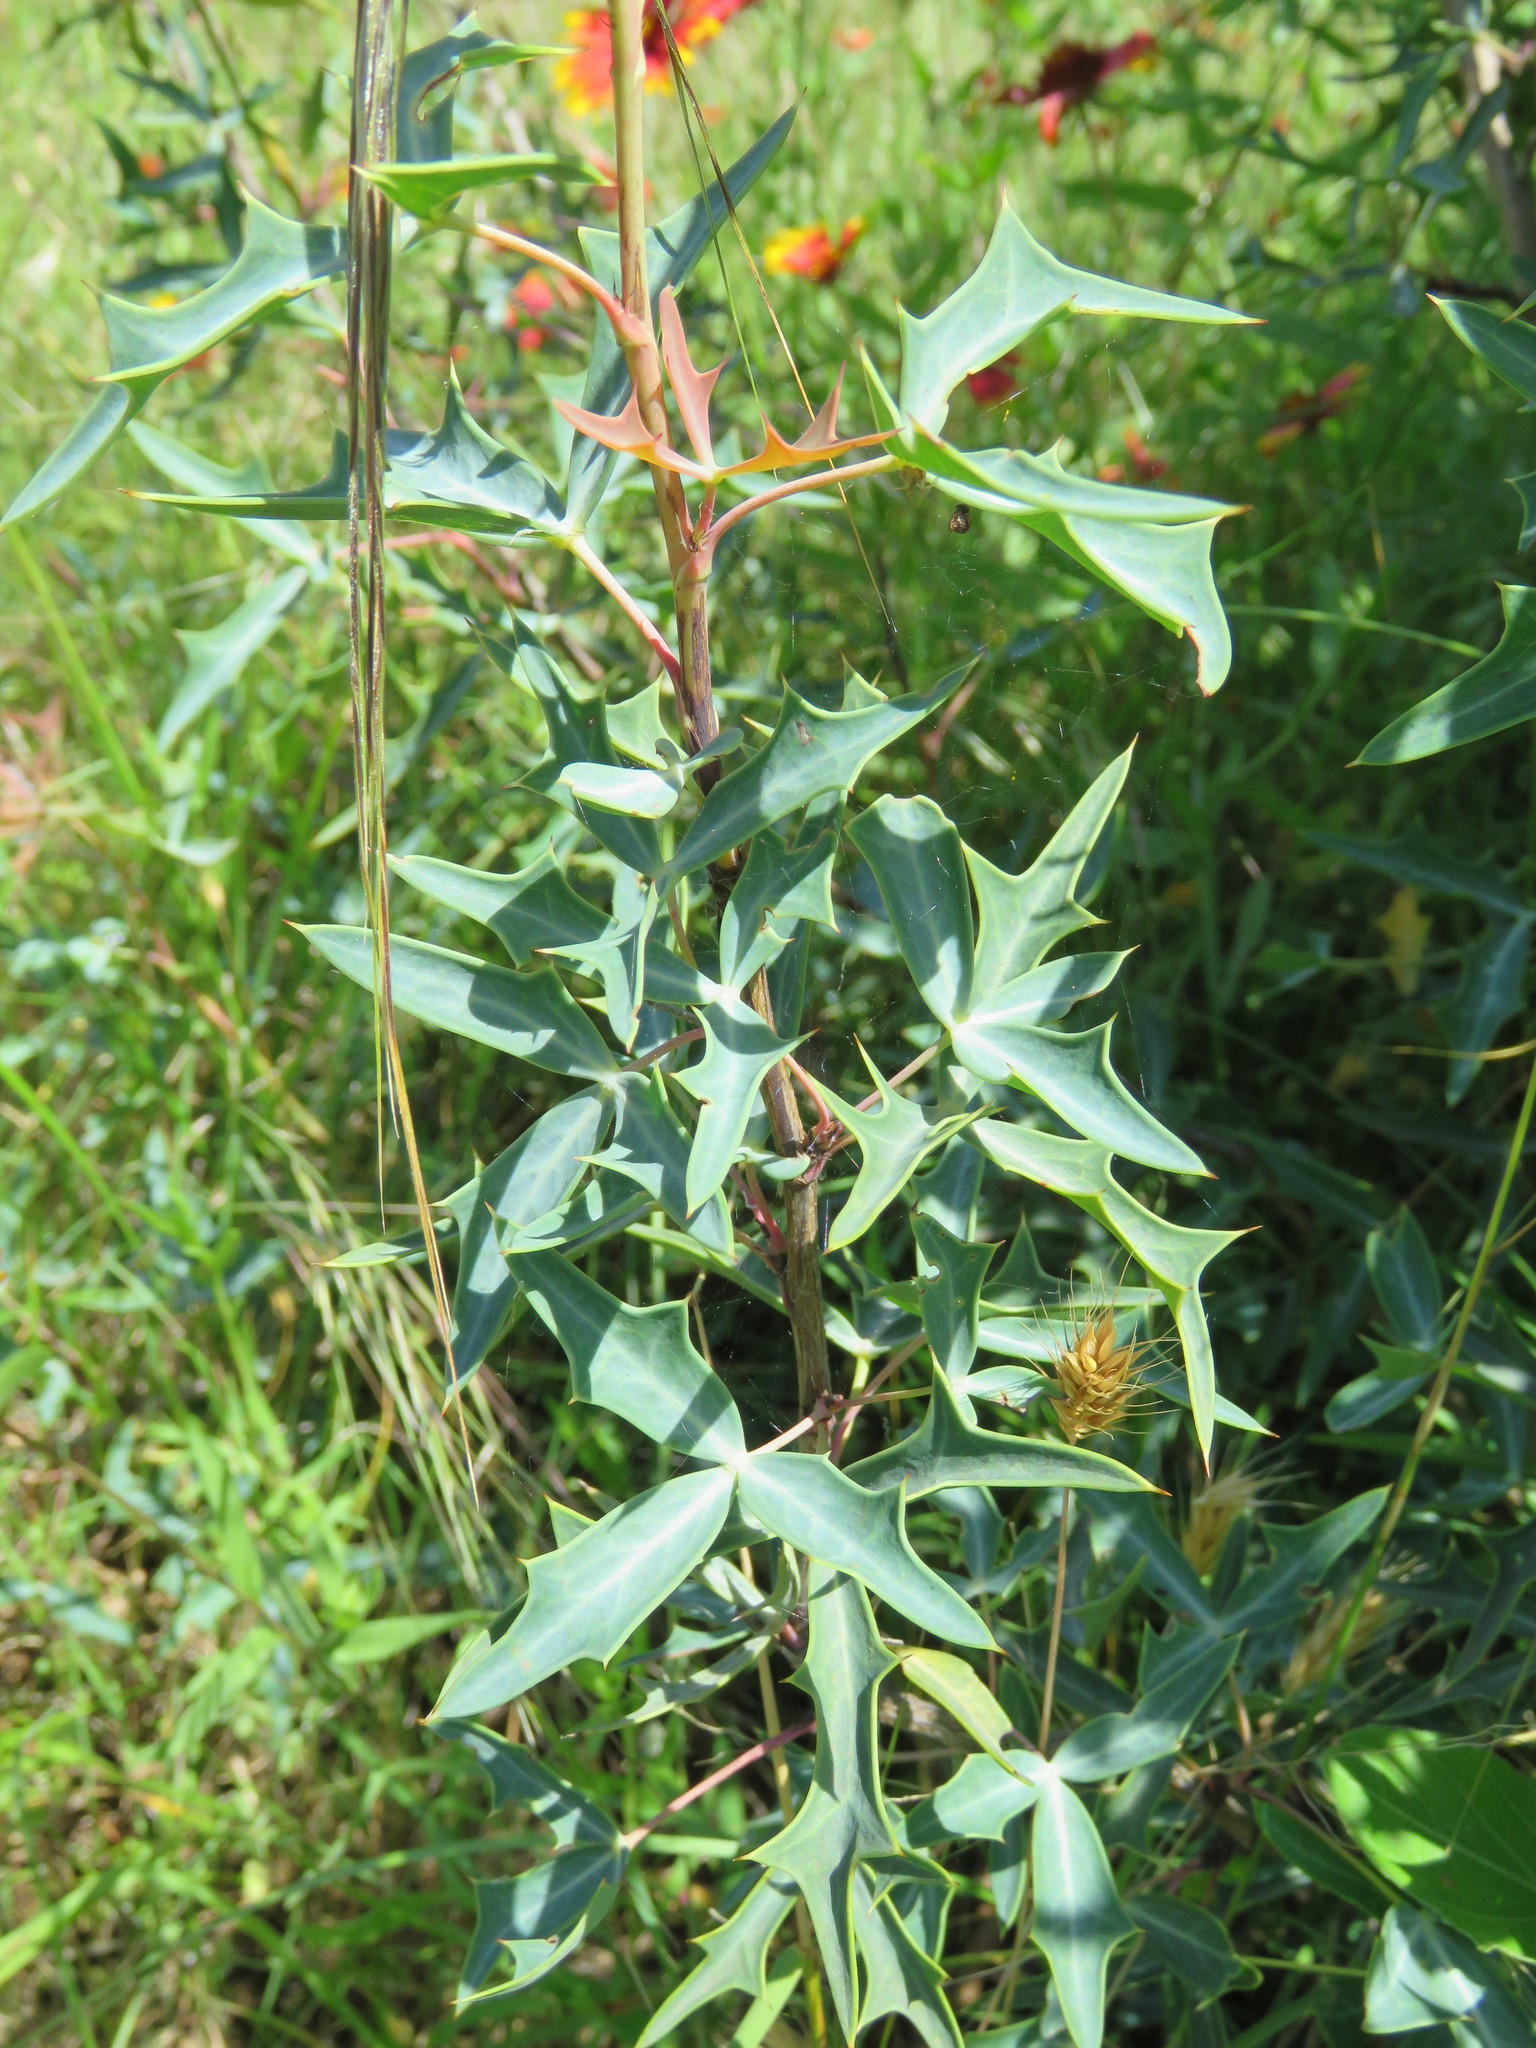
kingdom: Plantae
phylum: Tracheophyta
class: Magnoliopsida
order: Ranunculales
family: Berberidaceae
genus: Alloberberis
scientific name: Alloberberis trifoliolata
